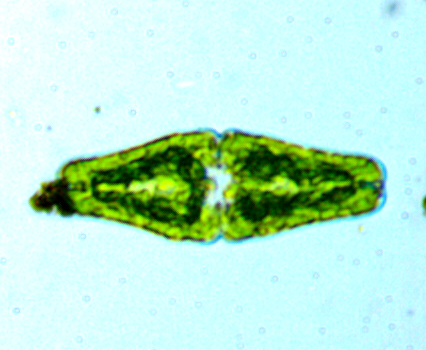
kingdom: Plantae
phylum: Charophyta
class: Conjugatophyceae
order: Desmidiales
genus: Euastrum
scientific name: Euastrum ansatum
